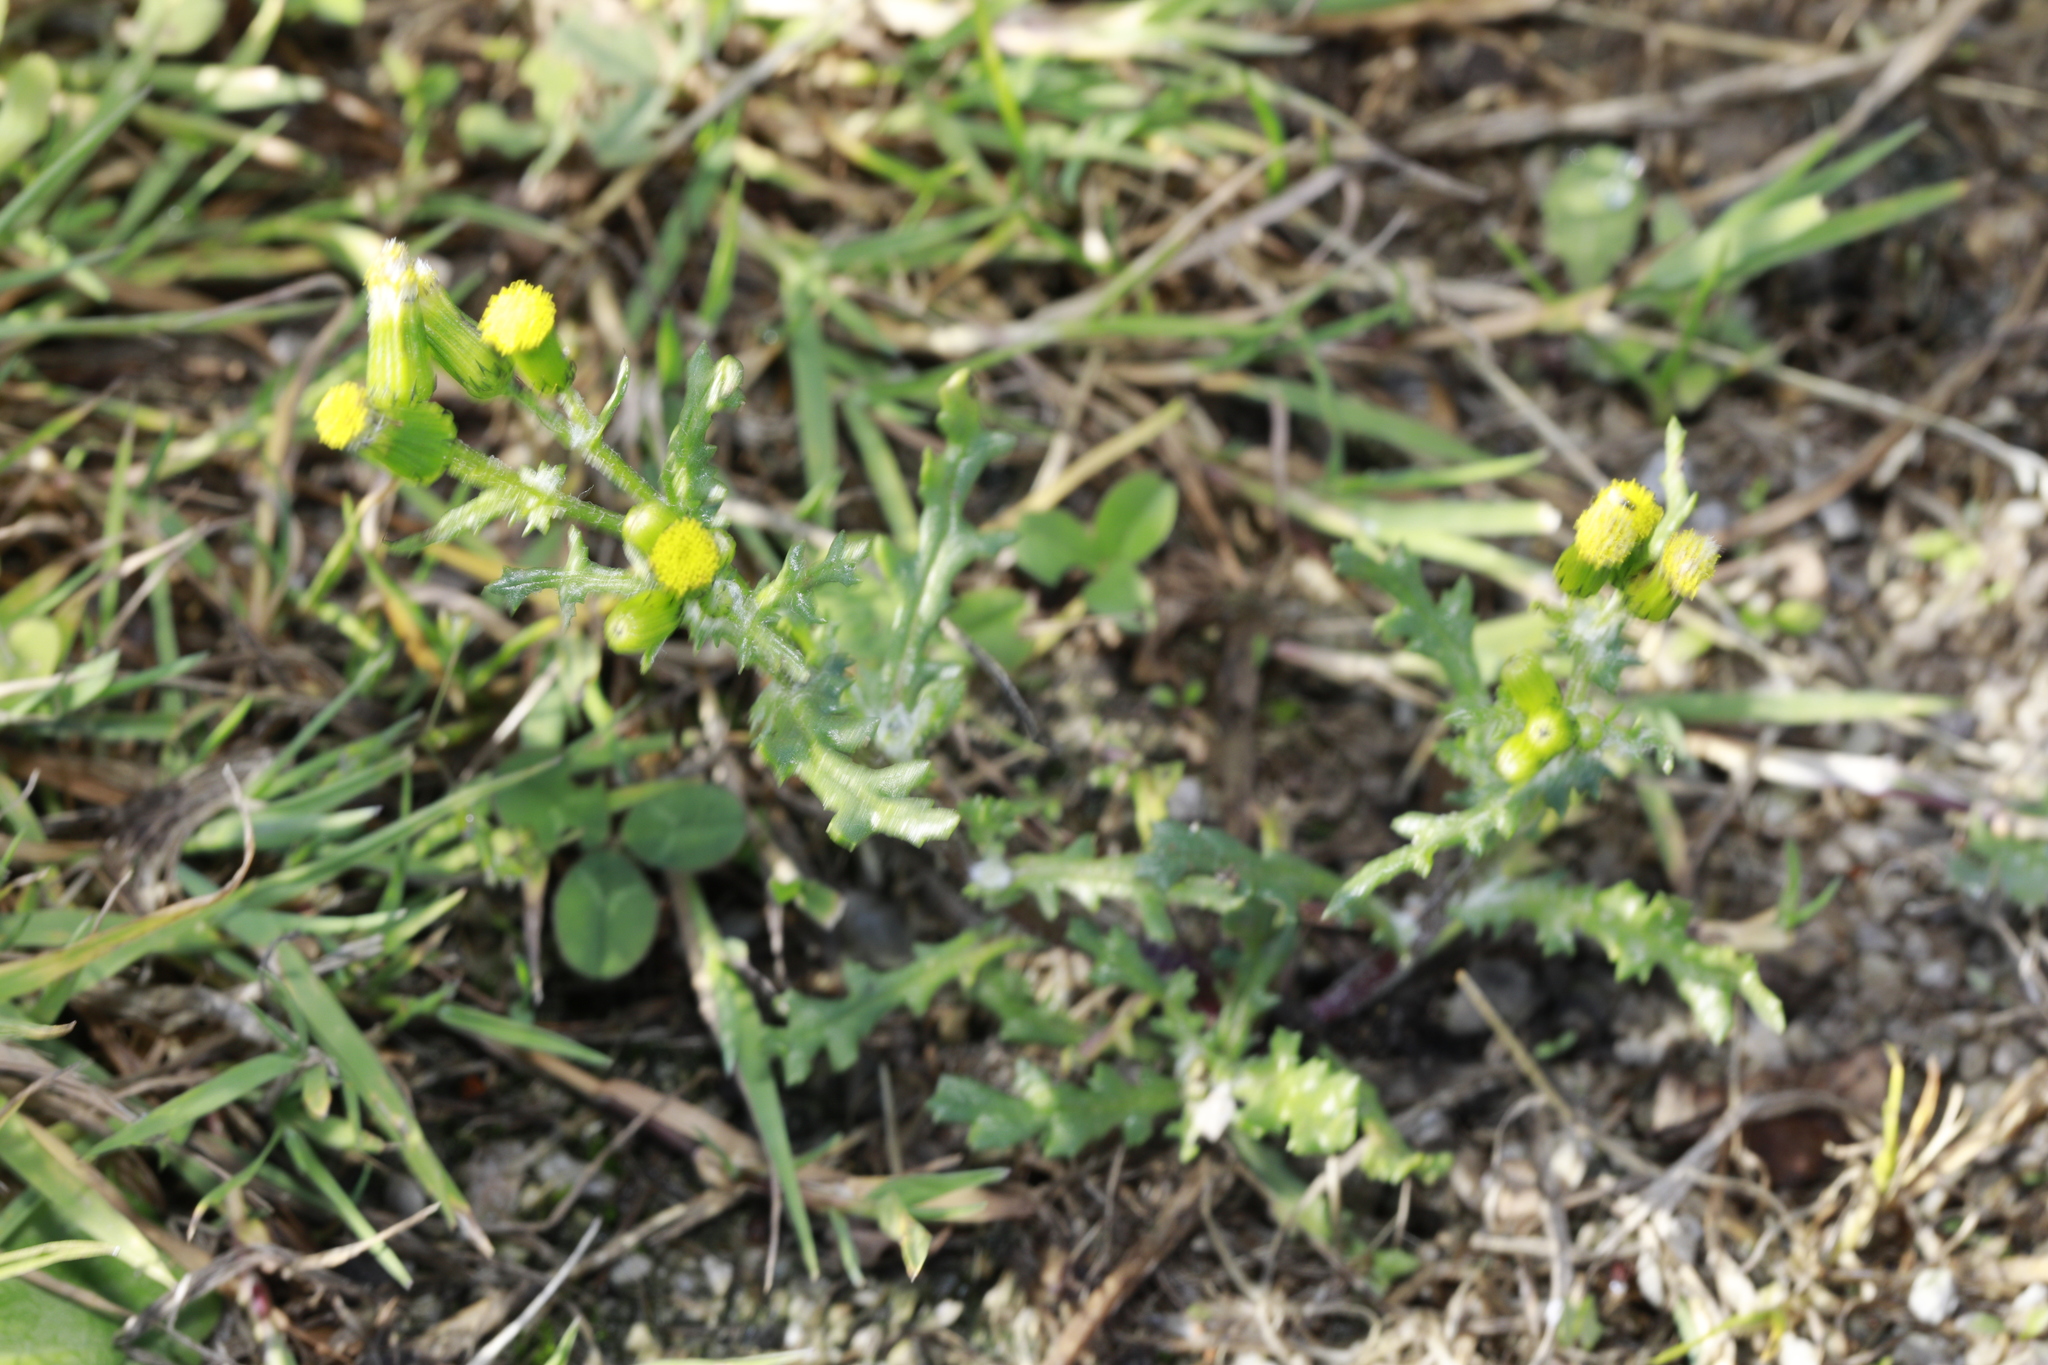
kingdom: Plantae
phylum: Tracheophyta
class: Magnoliopsida
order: Asterales
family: Asteraceae
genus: Senecio
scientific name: Senecio vulgaris
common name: Old-man-in-the-spring
